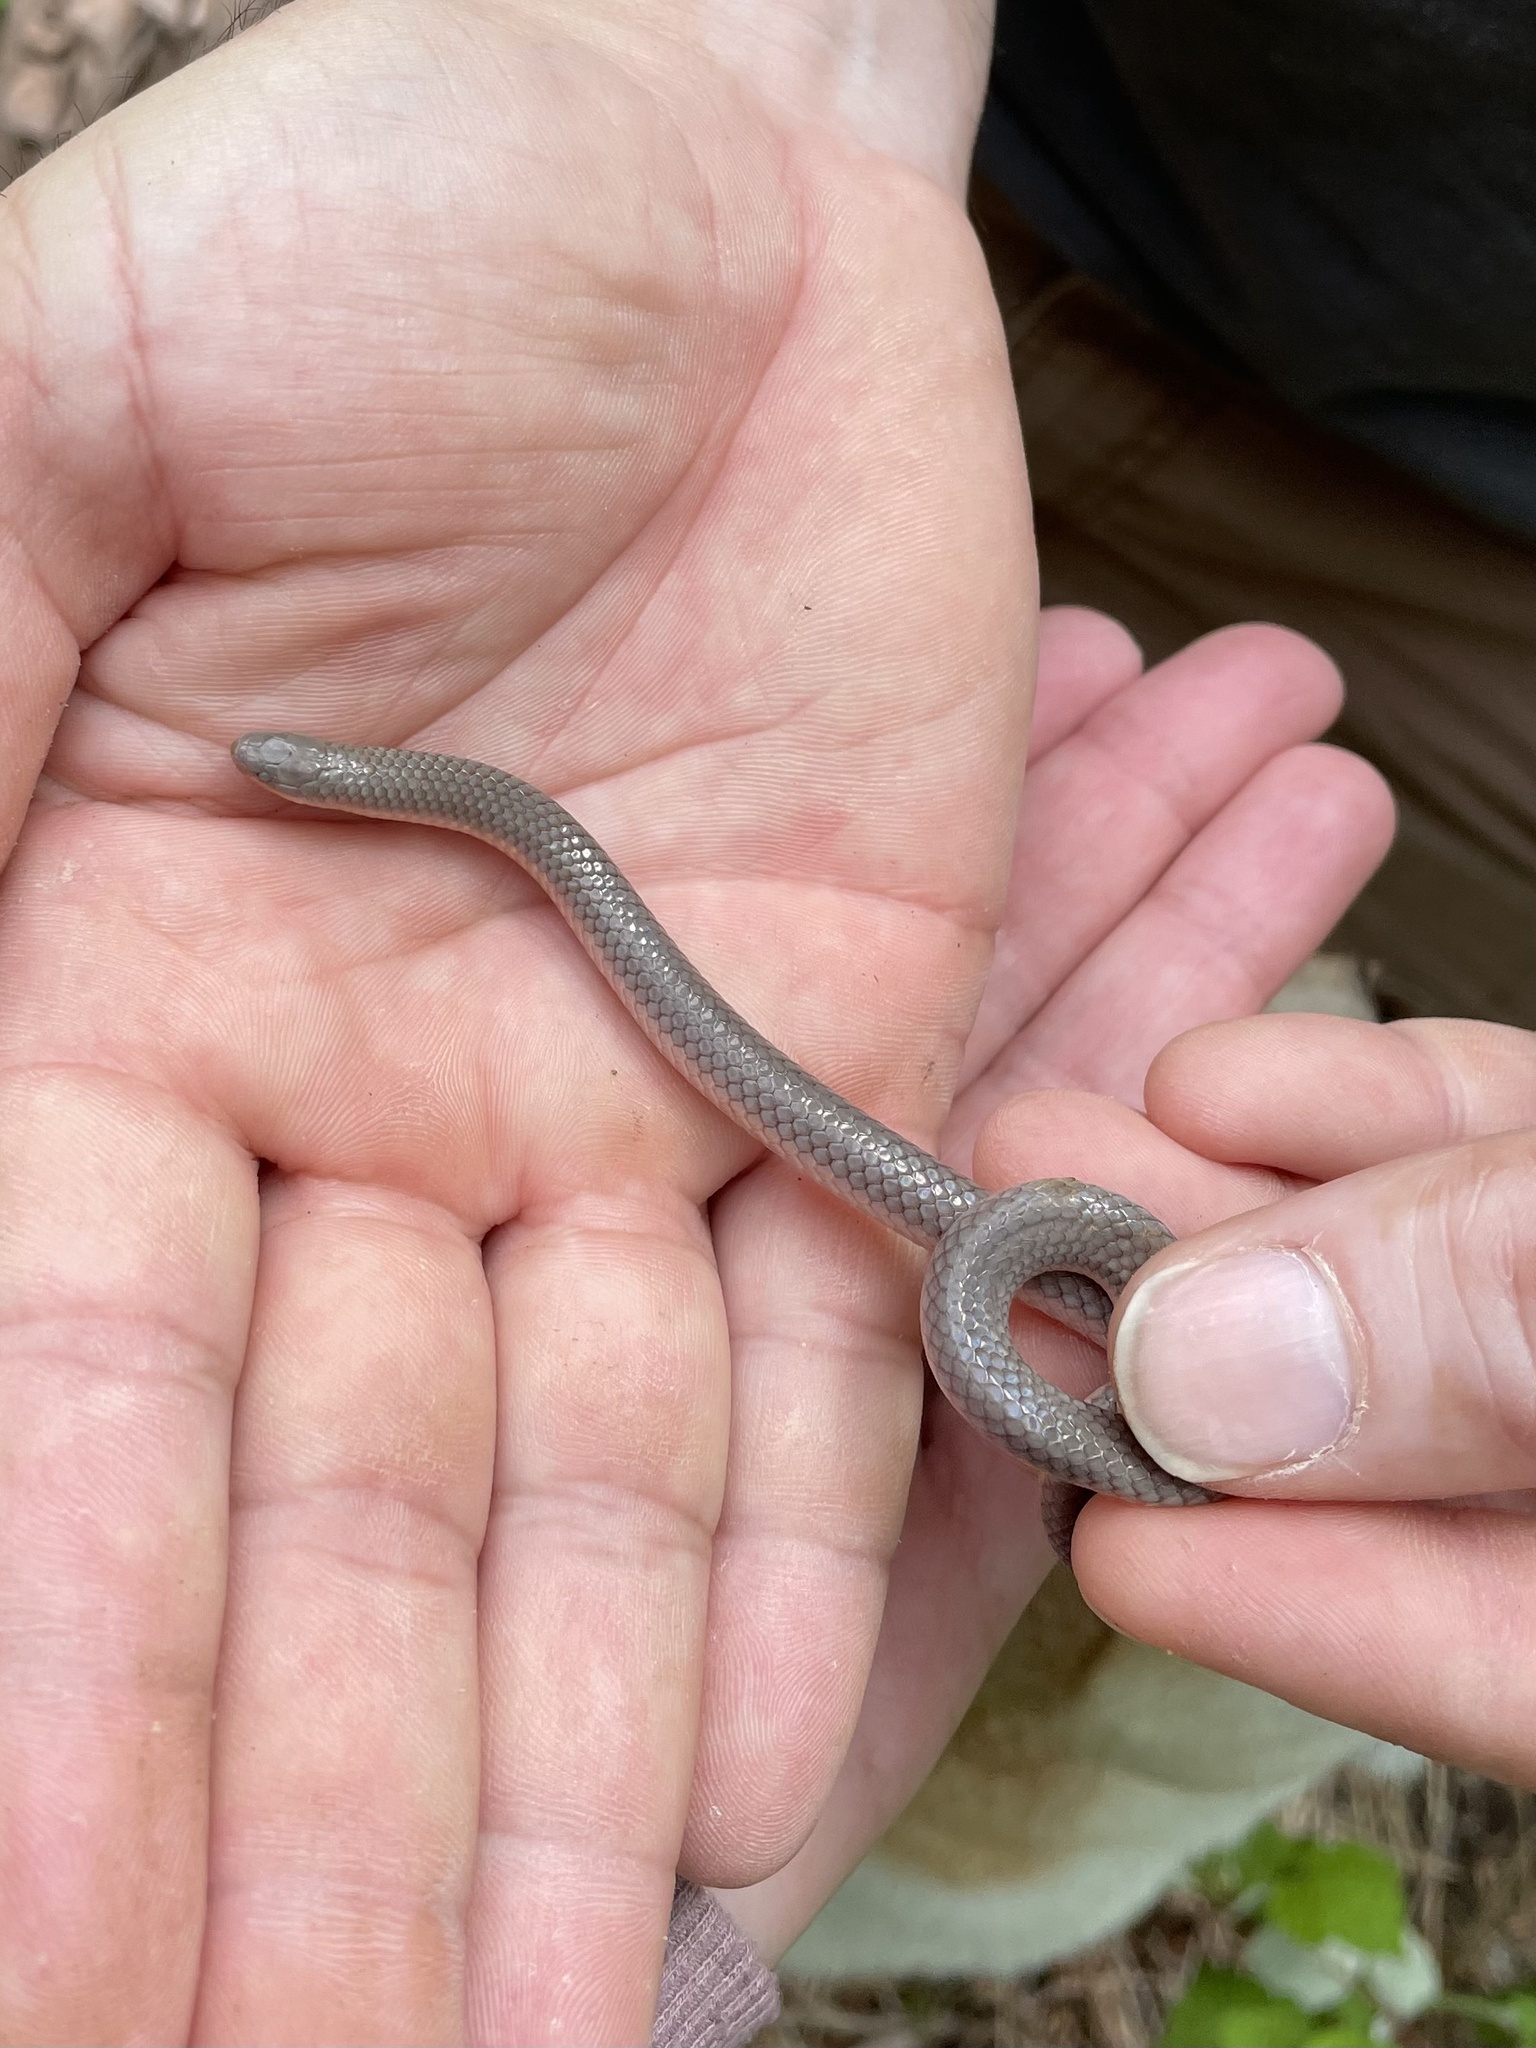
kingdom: Animalia
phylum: Chordata
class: Squamata
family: Colubridae
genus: Carphophis
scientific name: Carphophis amoenus
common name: Eastern worm snake
